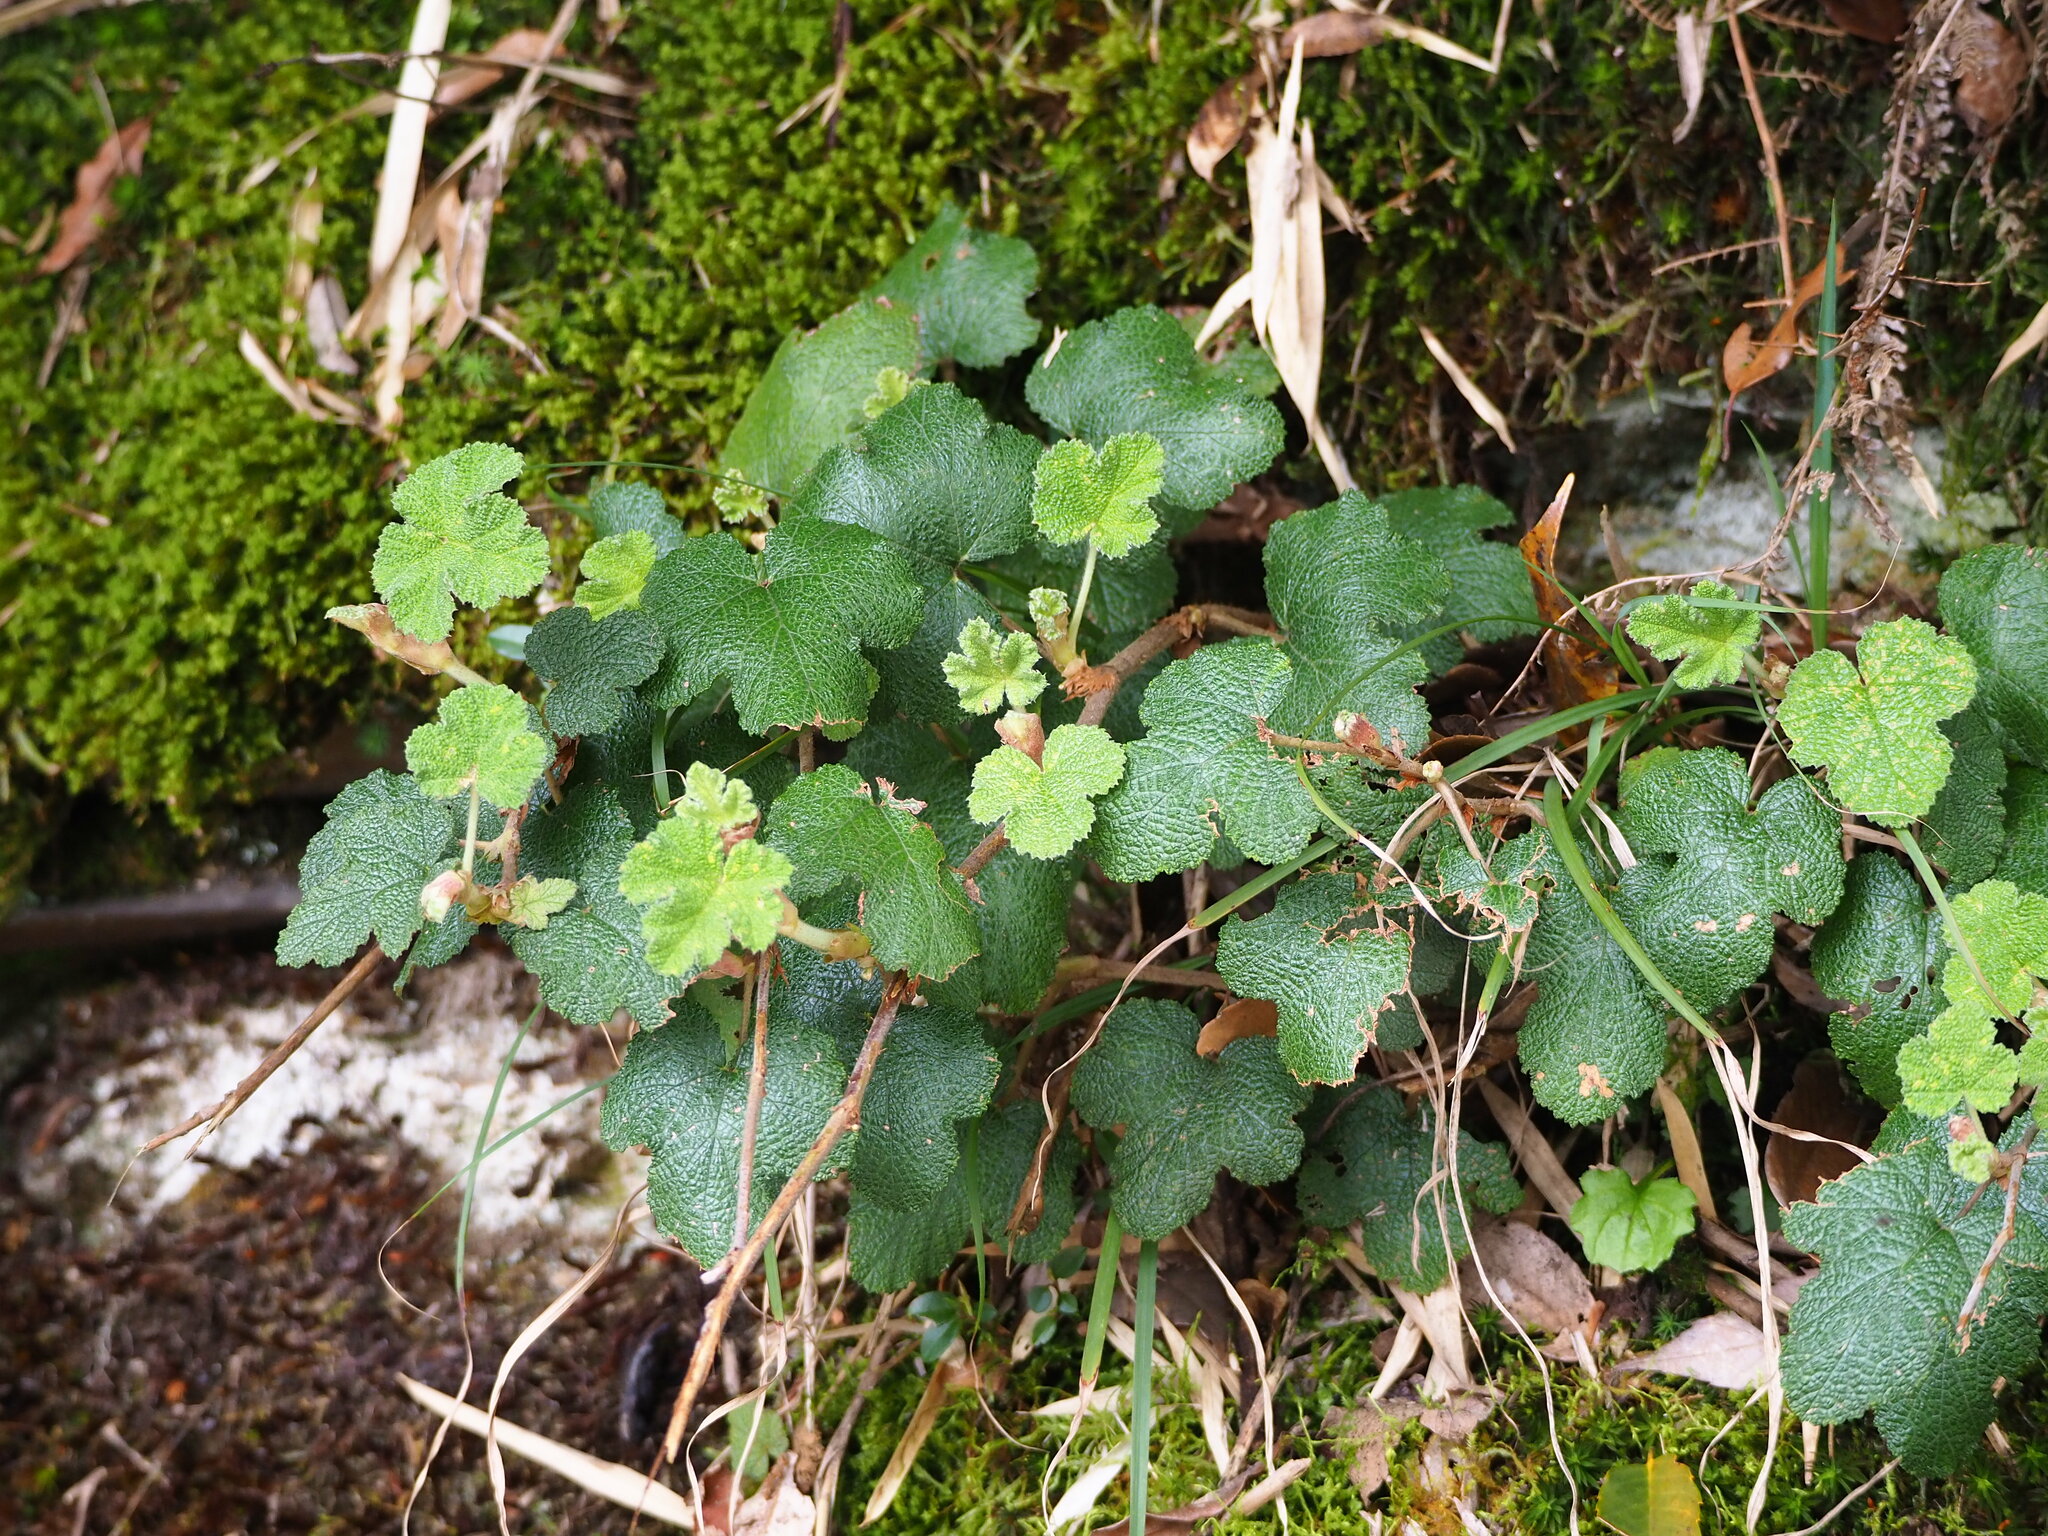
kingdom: Plantae
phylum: Tracheophyta
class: Magnoliopsida
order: Rosales
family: Rosaceae
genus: Rubus
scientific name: Rubus rolfei
